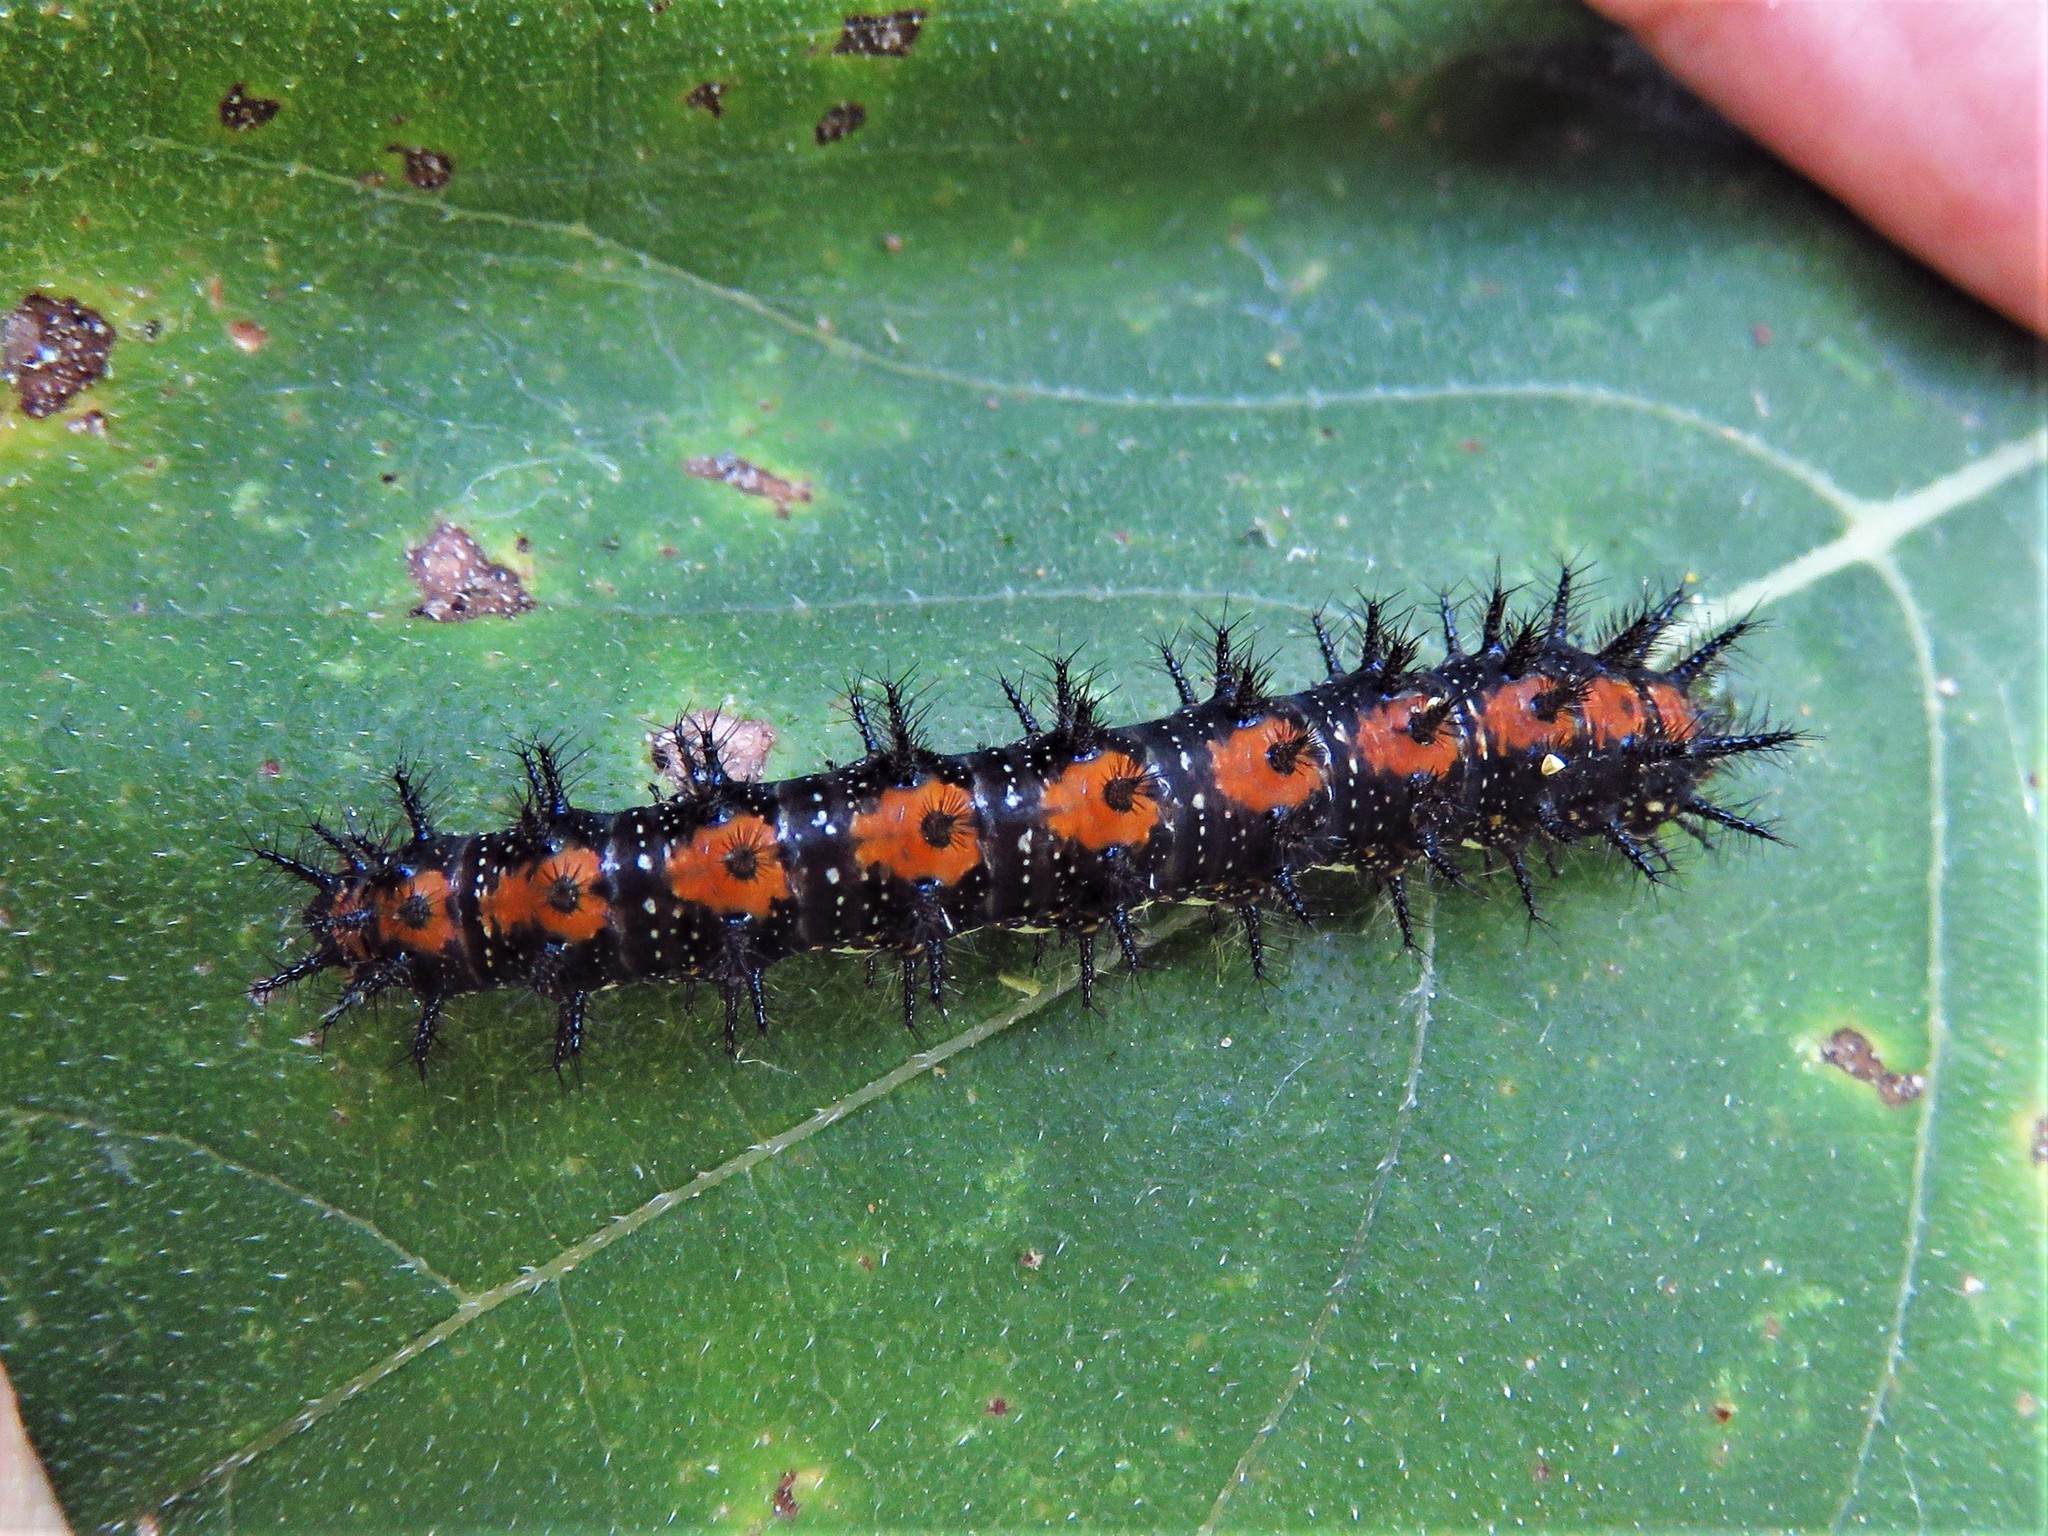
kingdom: Animalia
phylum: Arthropoda
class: Insecta
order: Lepidoptera
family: Nymphalidae
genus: Chlosyne
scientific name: Chlosyne lacinia
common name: Bordered patch
